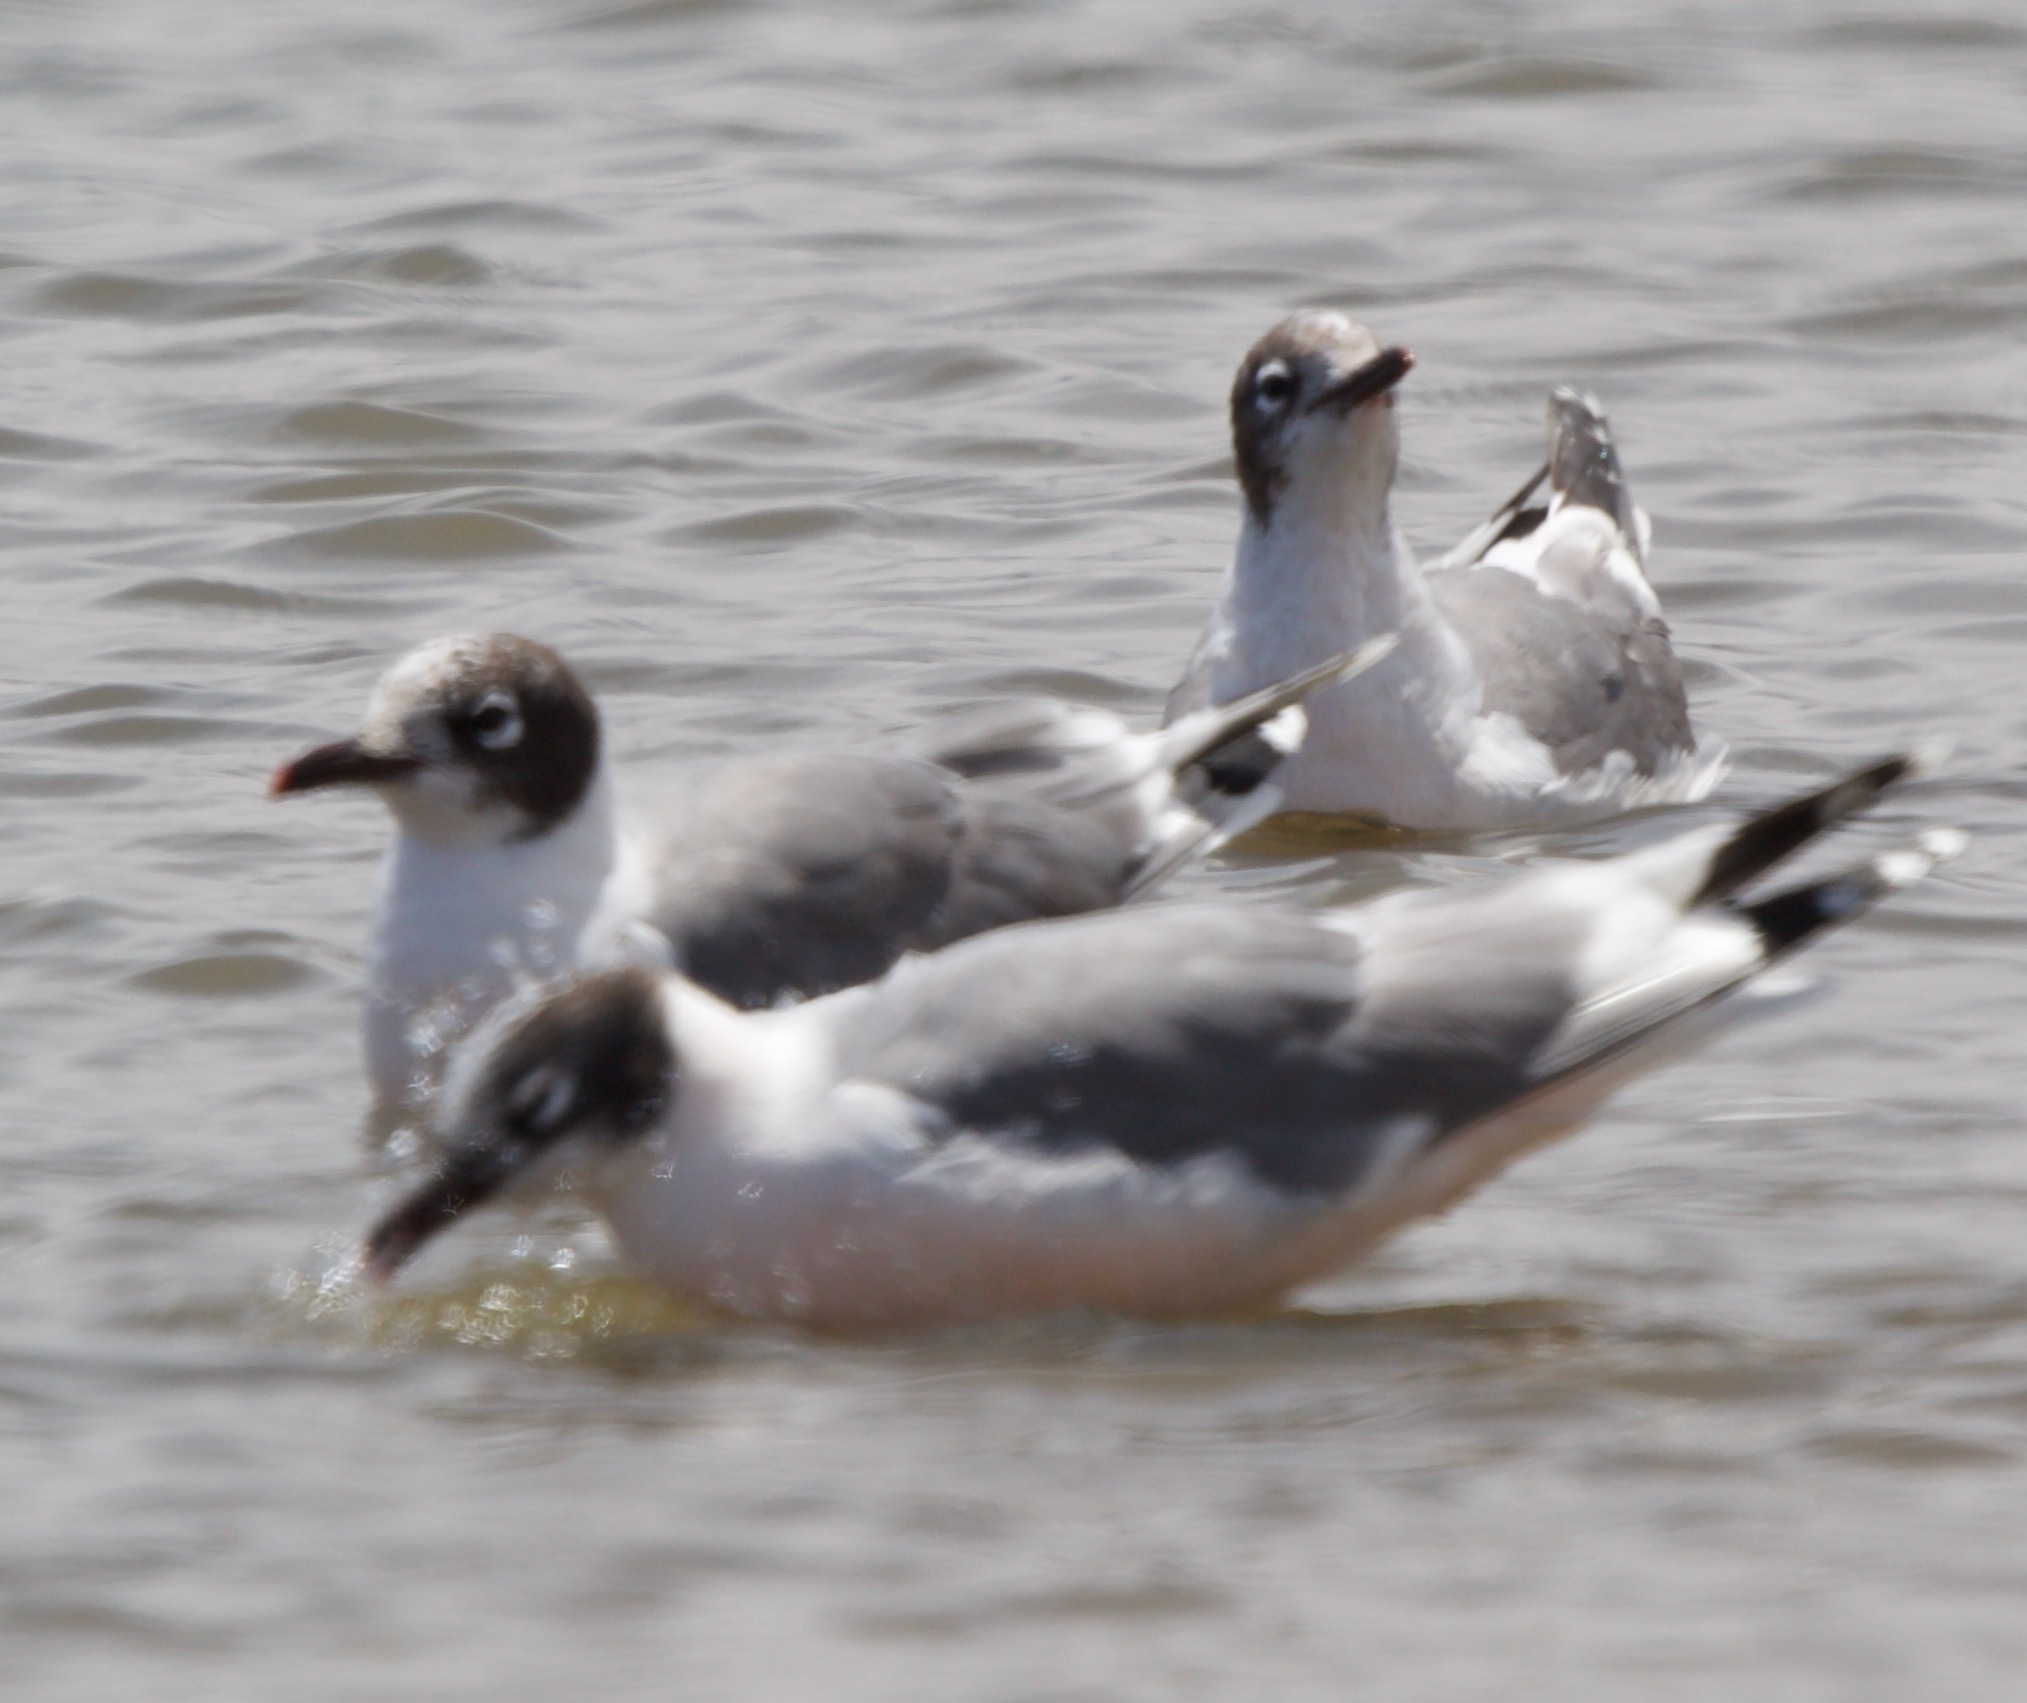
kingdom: Animalia
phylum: Chordata
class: Aves
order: Charadriiformes
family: Laridae
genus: Leucophaeus
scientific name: Leucophaeus pipixcan
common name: Franklin's gull
